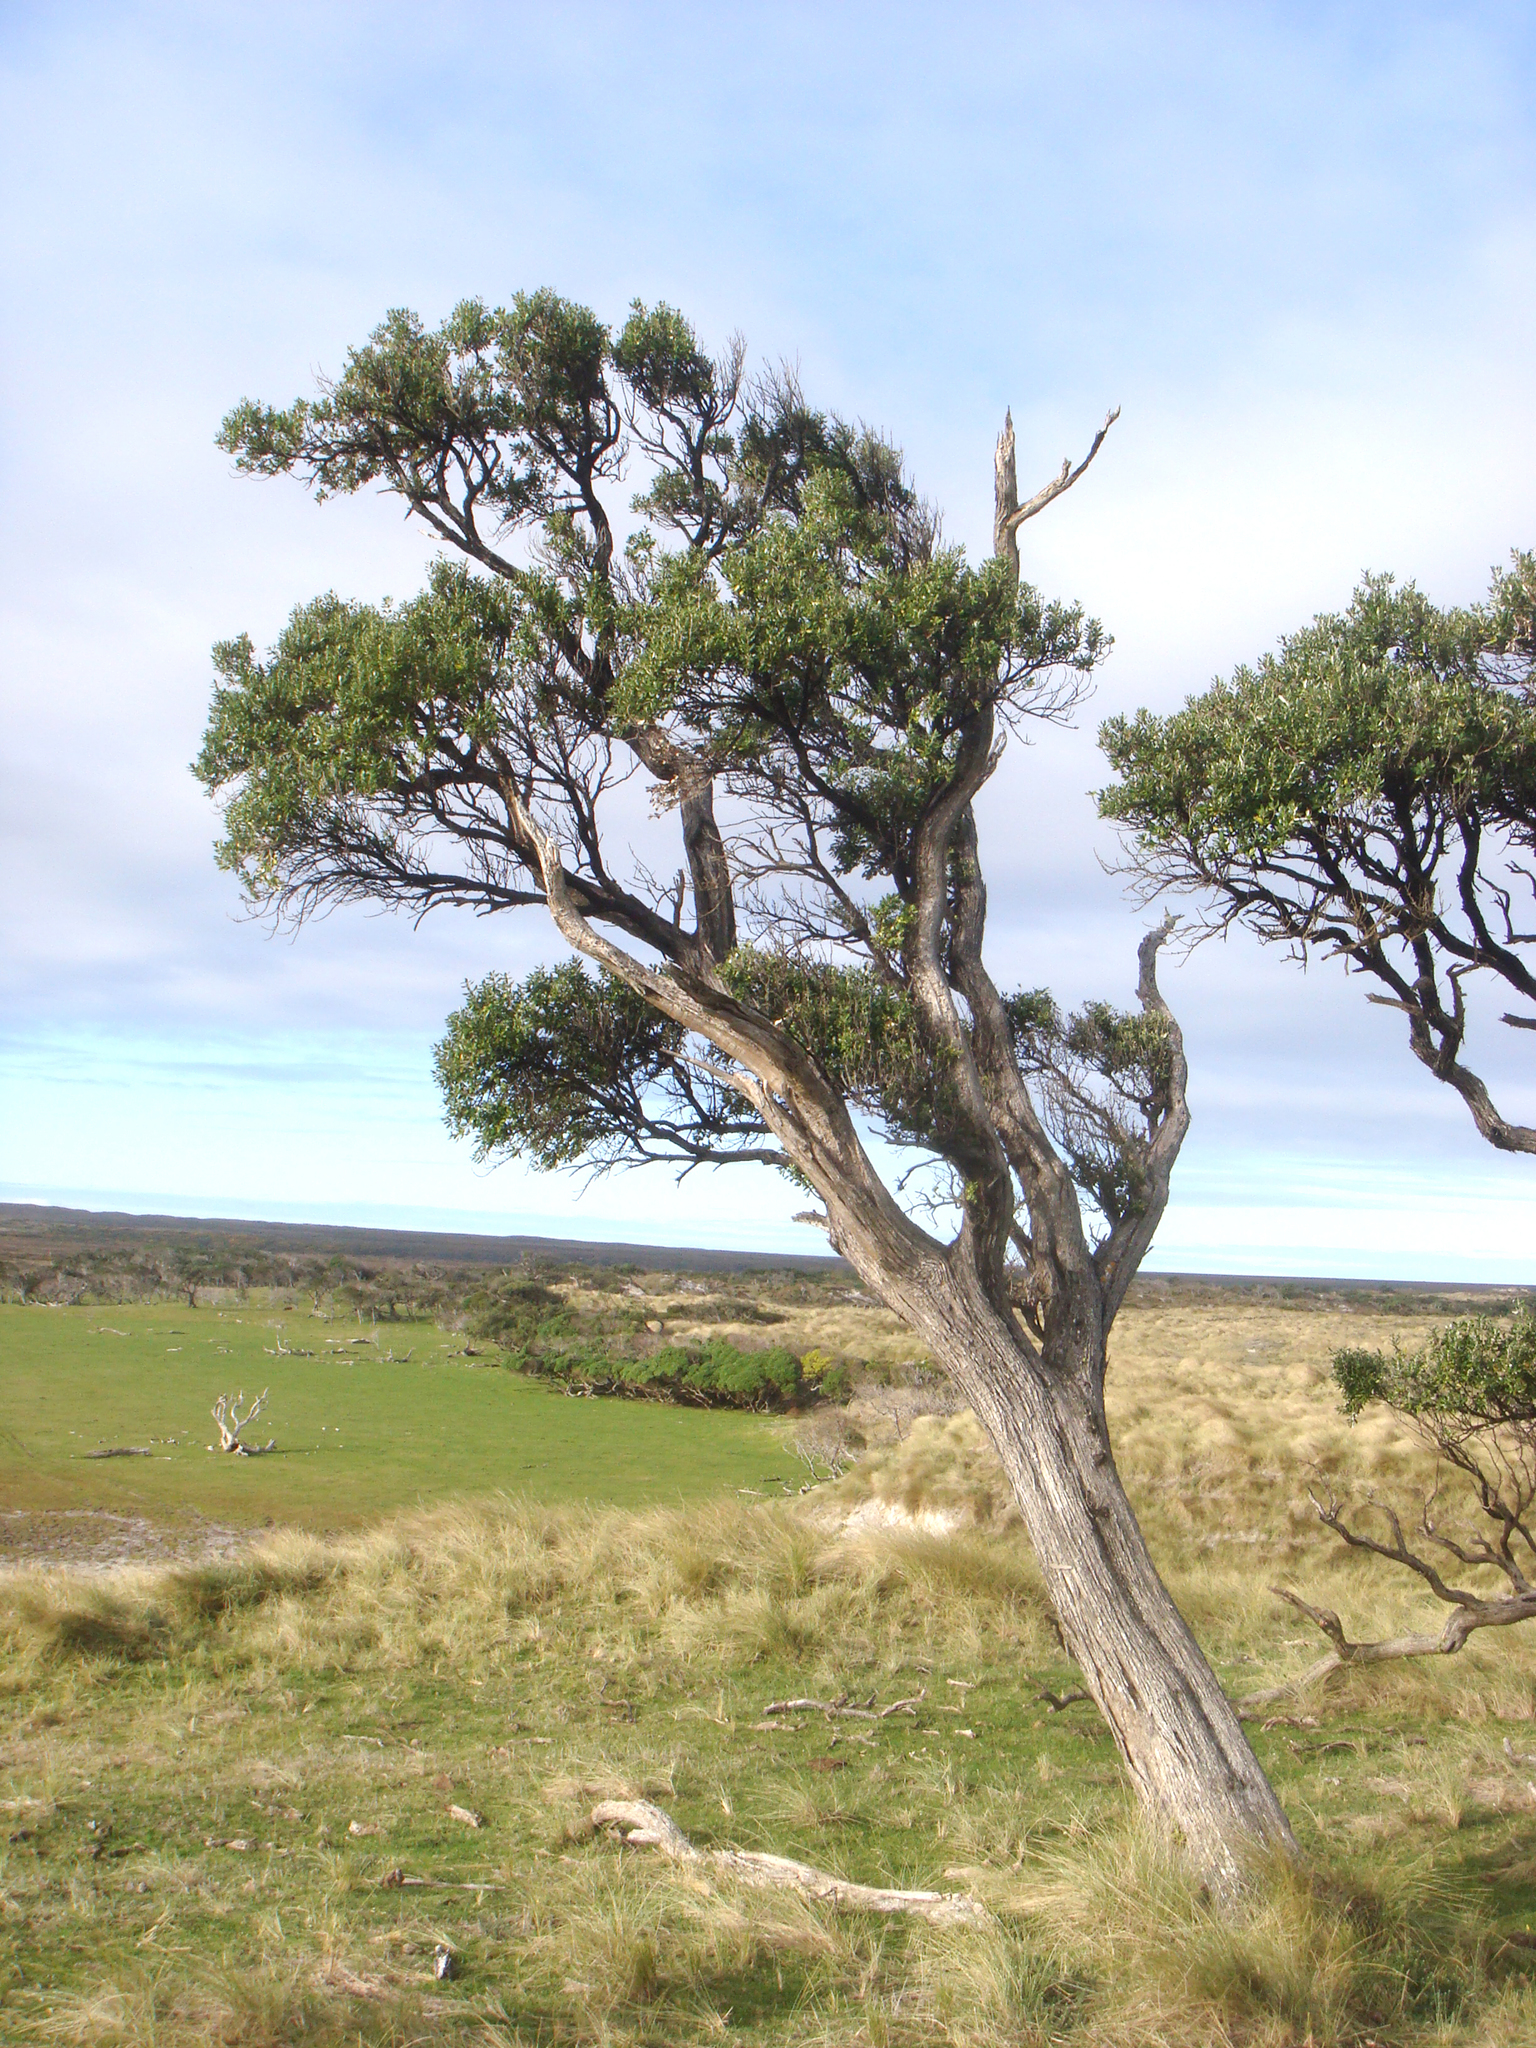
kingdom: Plantae
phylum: Tracheophyta
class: Magnoliopsida
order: Asterales
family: Asteraceae
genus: Olearia
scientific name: Olearia traversiorum
